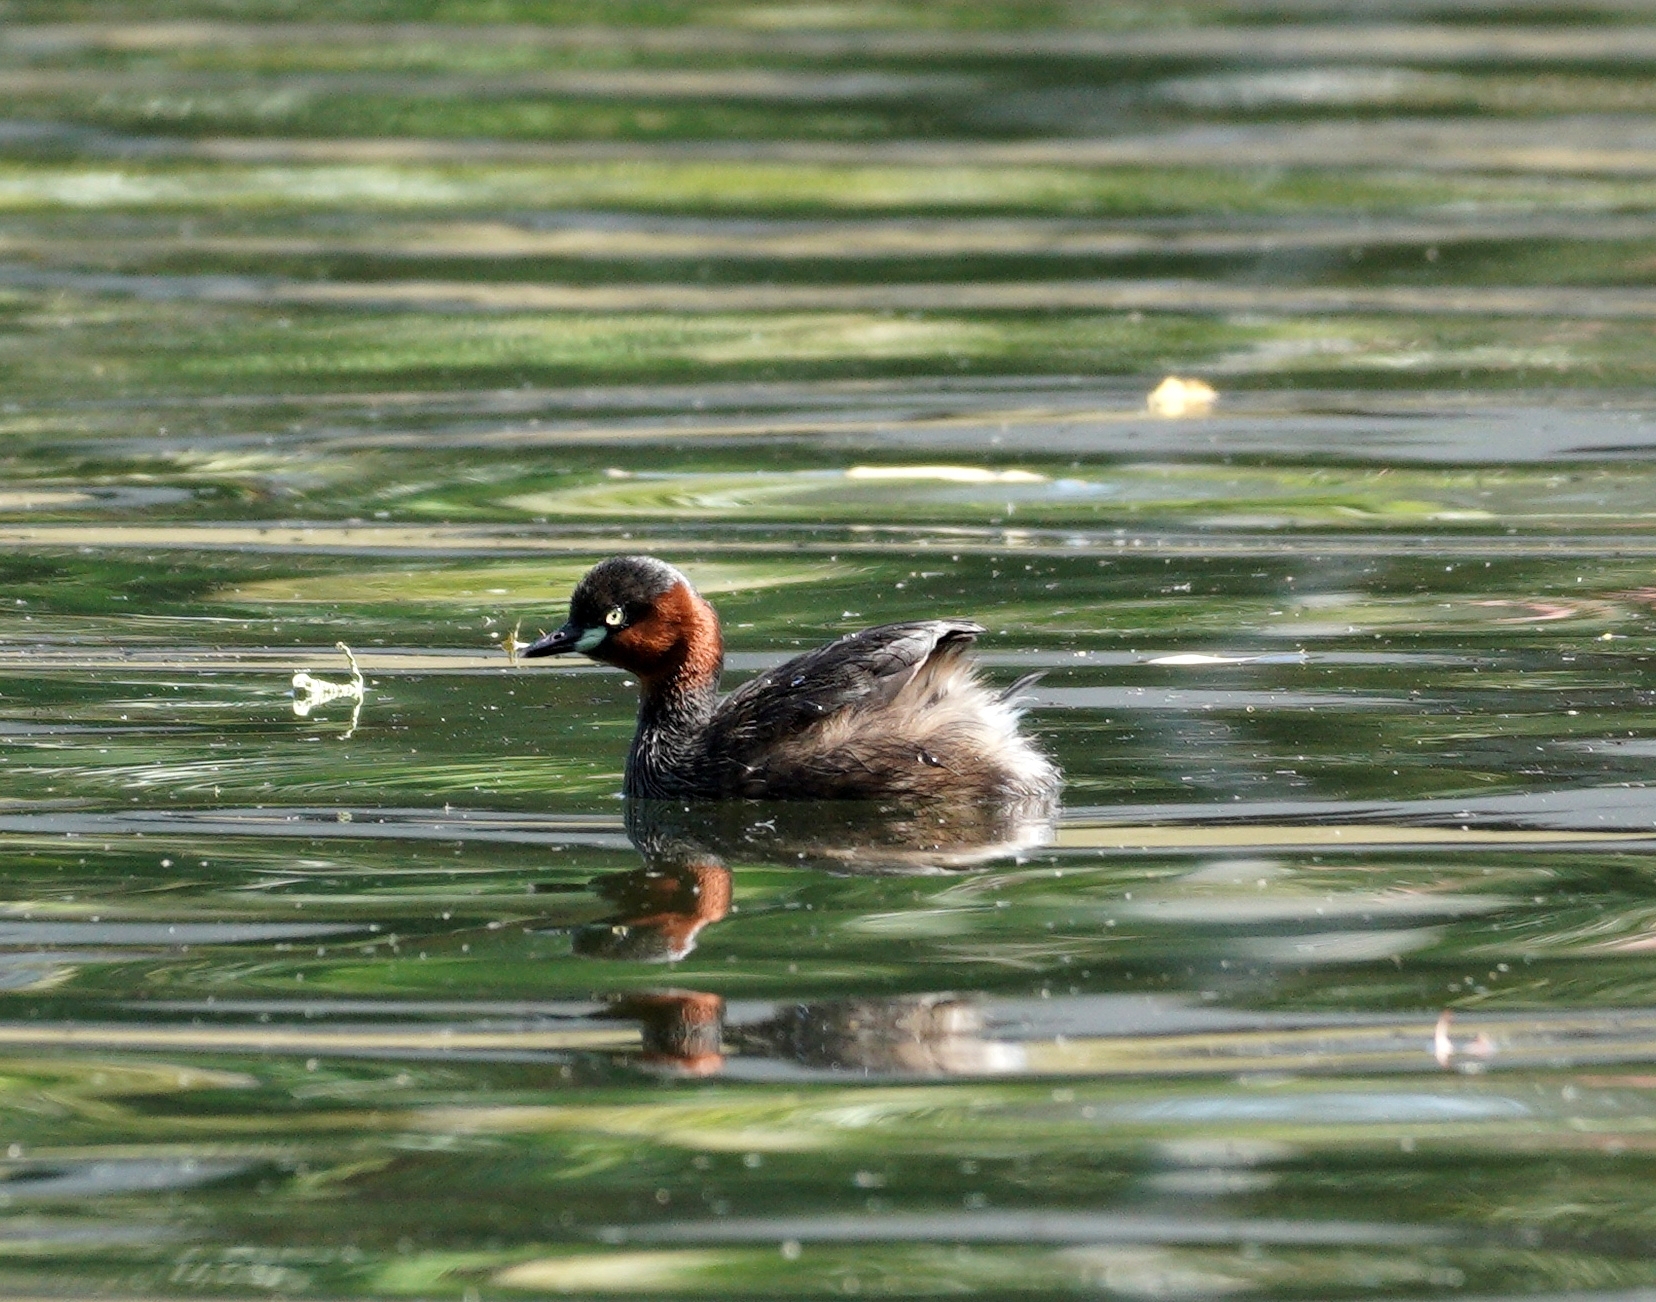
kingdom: Animalia
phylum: Chordata
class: Aves
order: Podicipediformes
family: Podicipedidae
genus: Tachybaptus
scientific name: Tachybaptus ruficollis
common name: Little grebe
